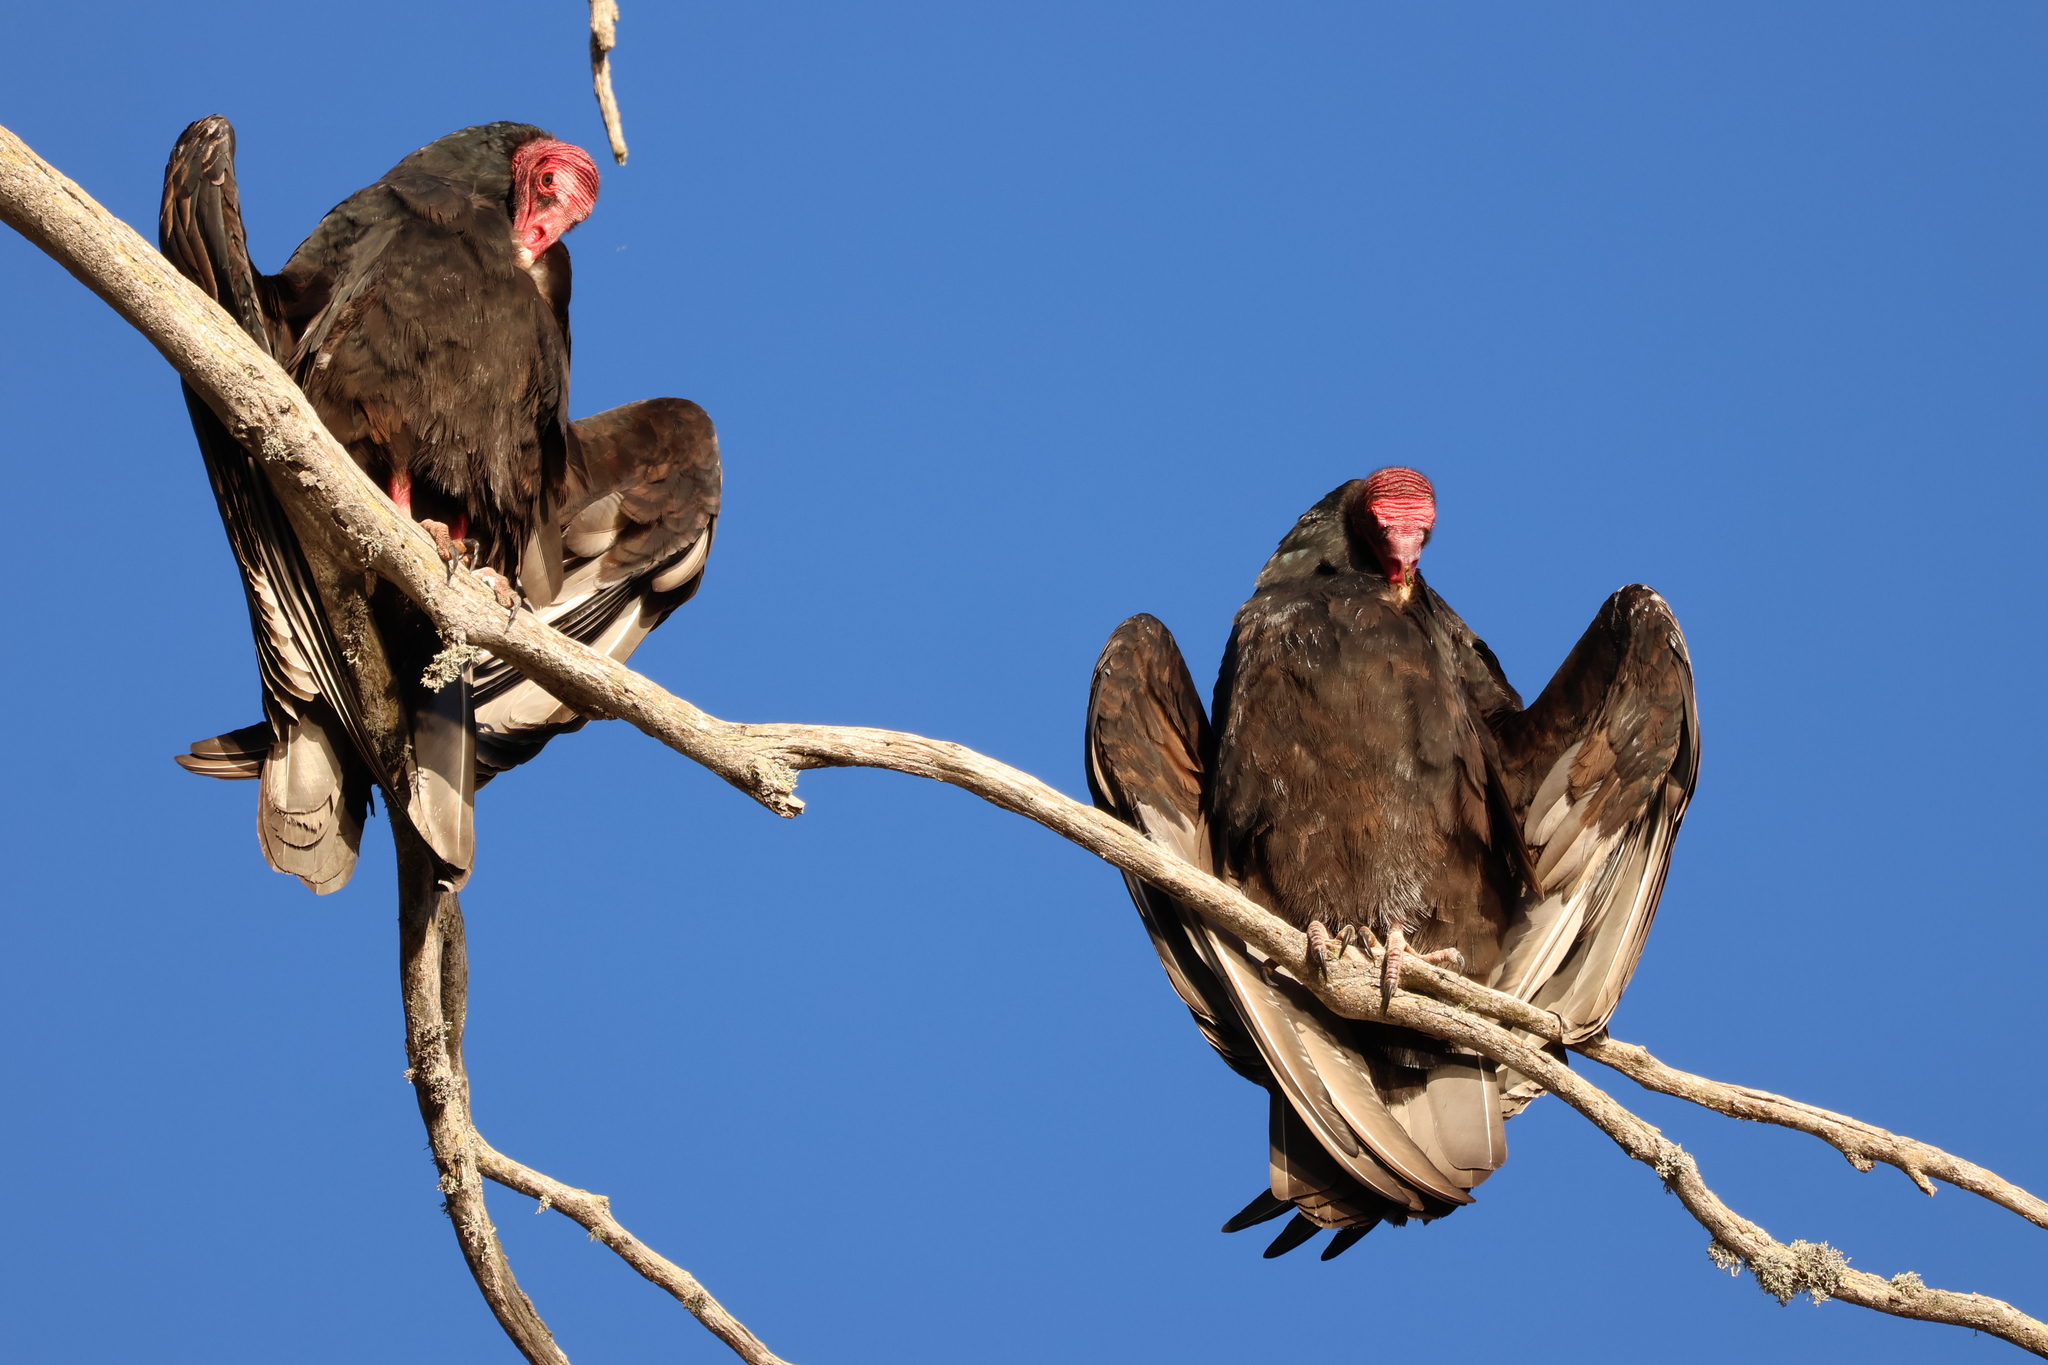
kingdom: Animalia
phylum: Chordata
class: Aves
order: Accipitriformes
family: Cathartidae
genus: Cathartes
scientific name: Cathartes aura
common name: Turkey vulture
